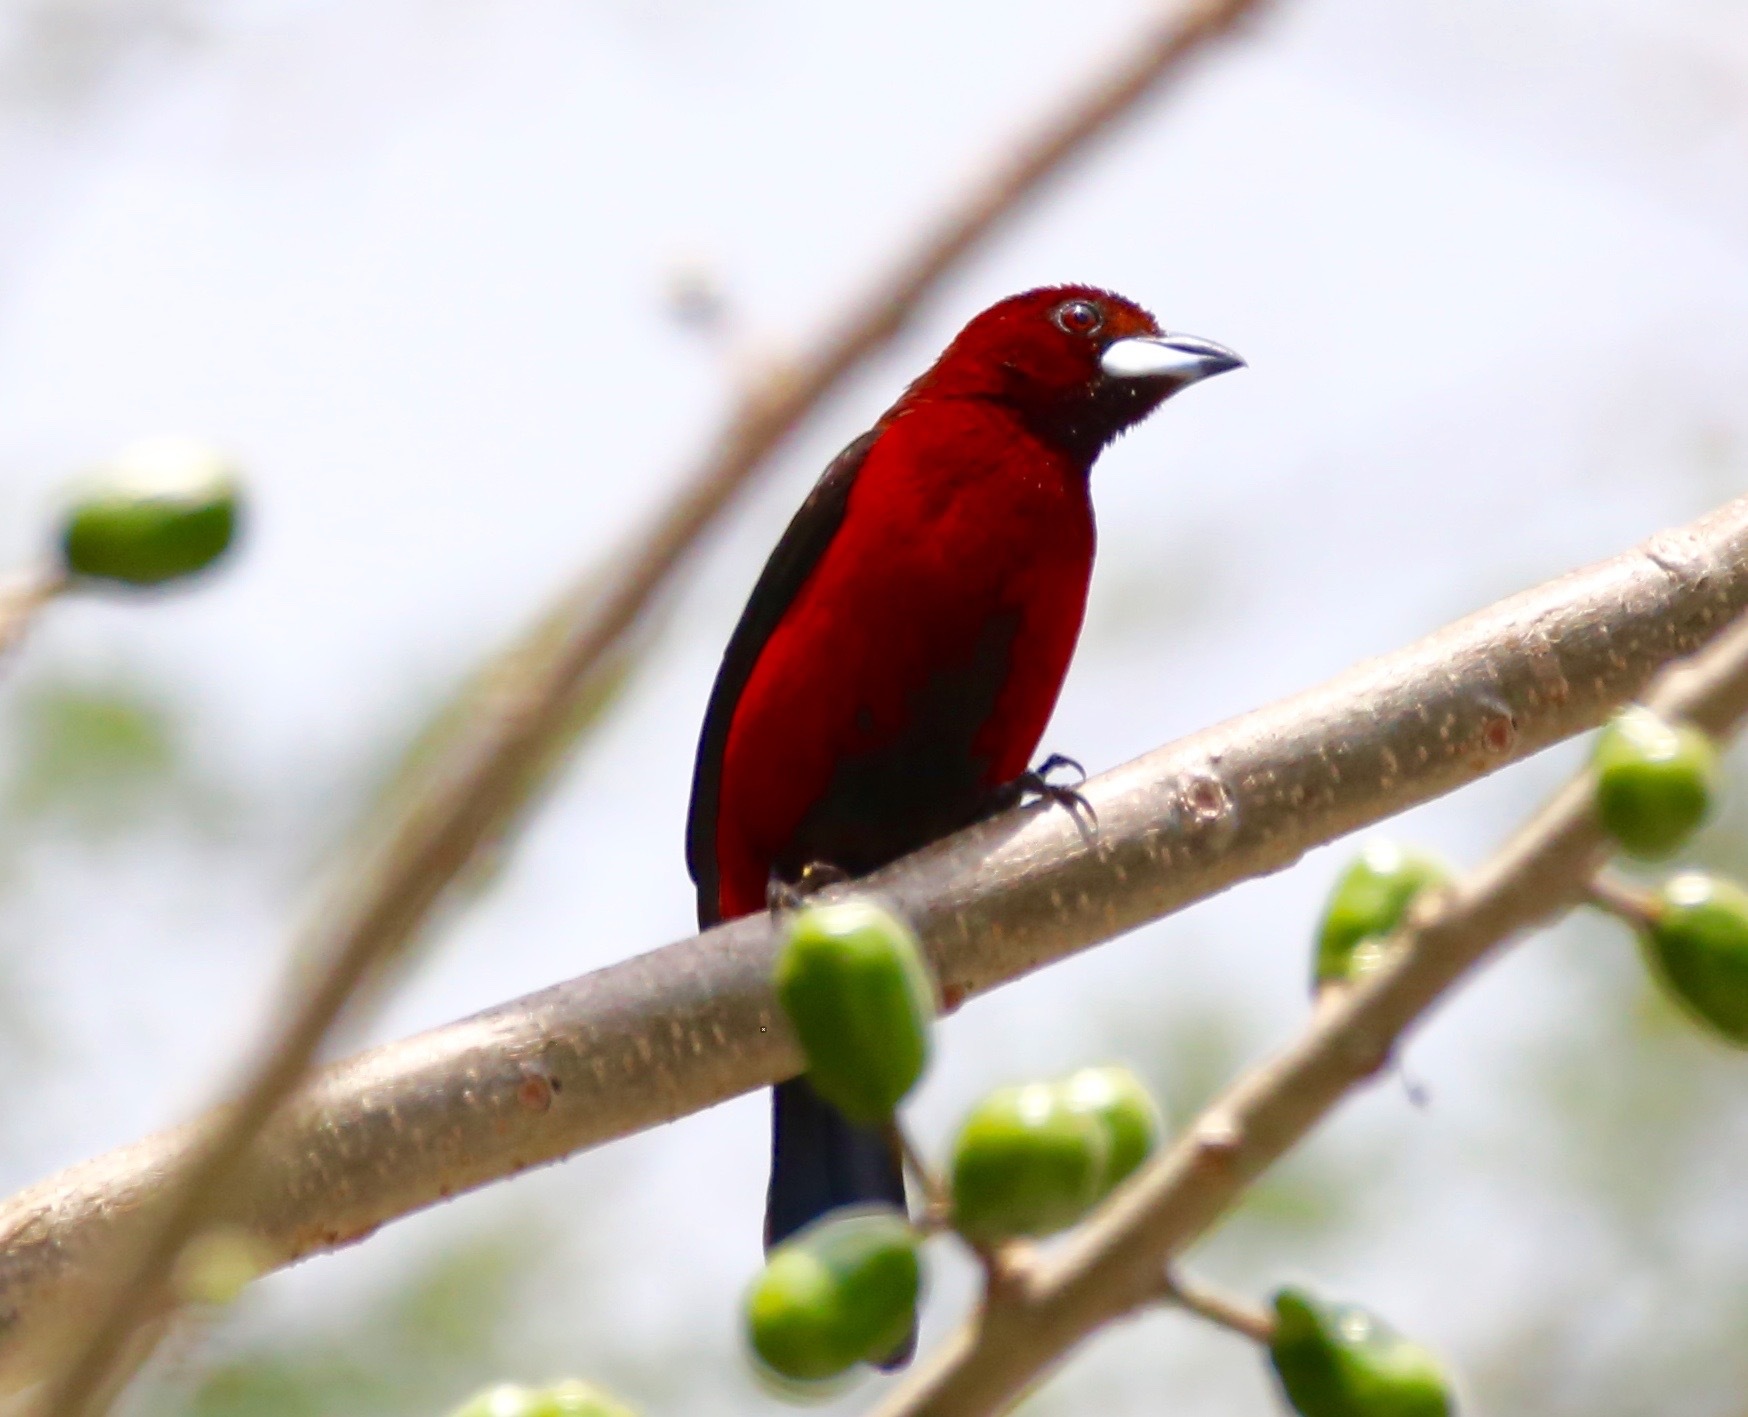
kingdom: Animalia
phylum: Chordata
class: Aves
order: Passeriformes
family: Thraupidae
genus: Ramphocelus
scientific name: Ramphocelus dimidiatus
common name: Crimson-backed tanager
